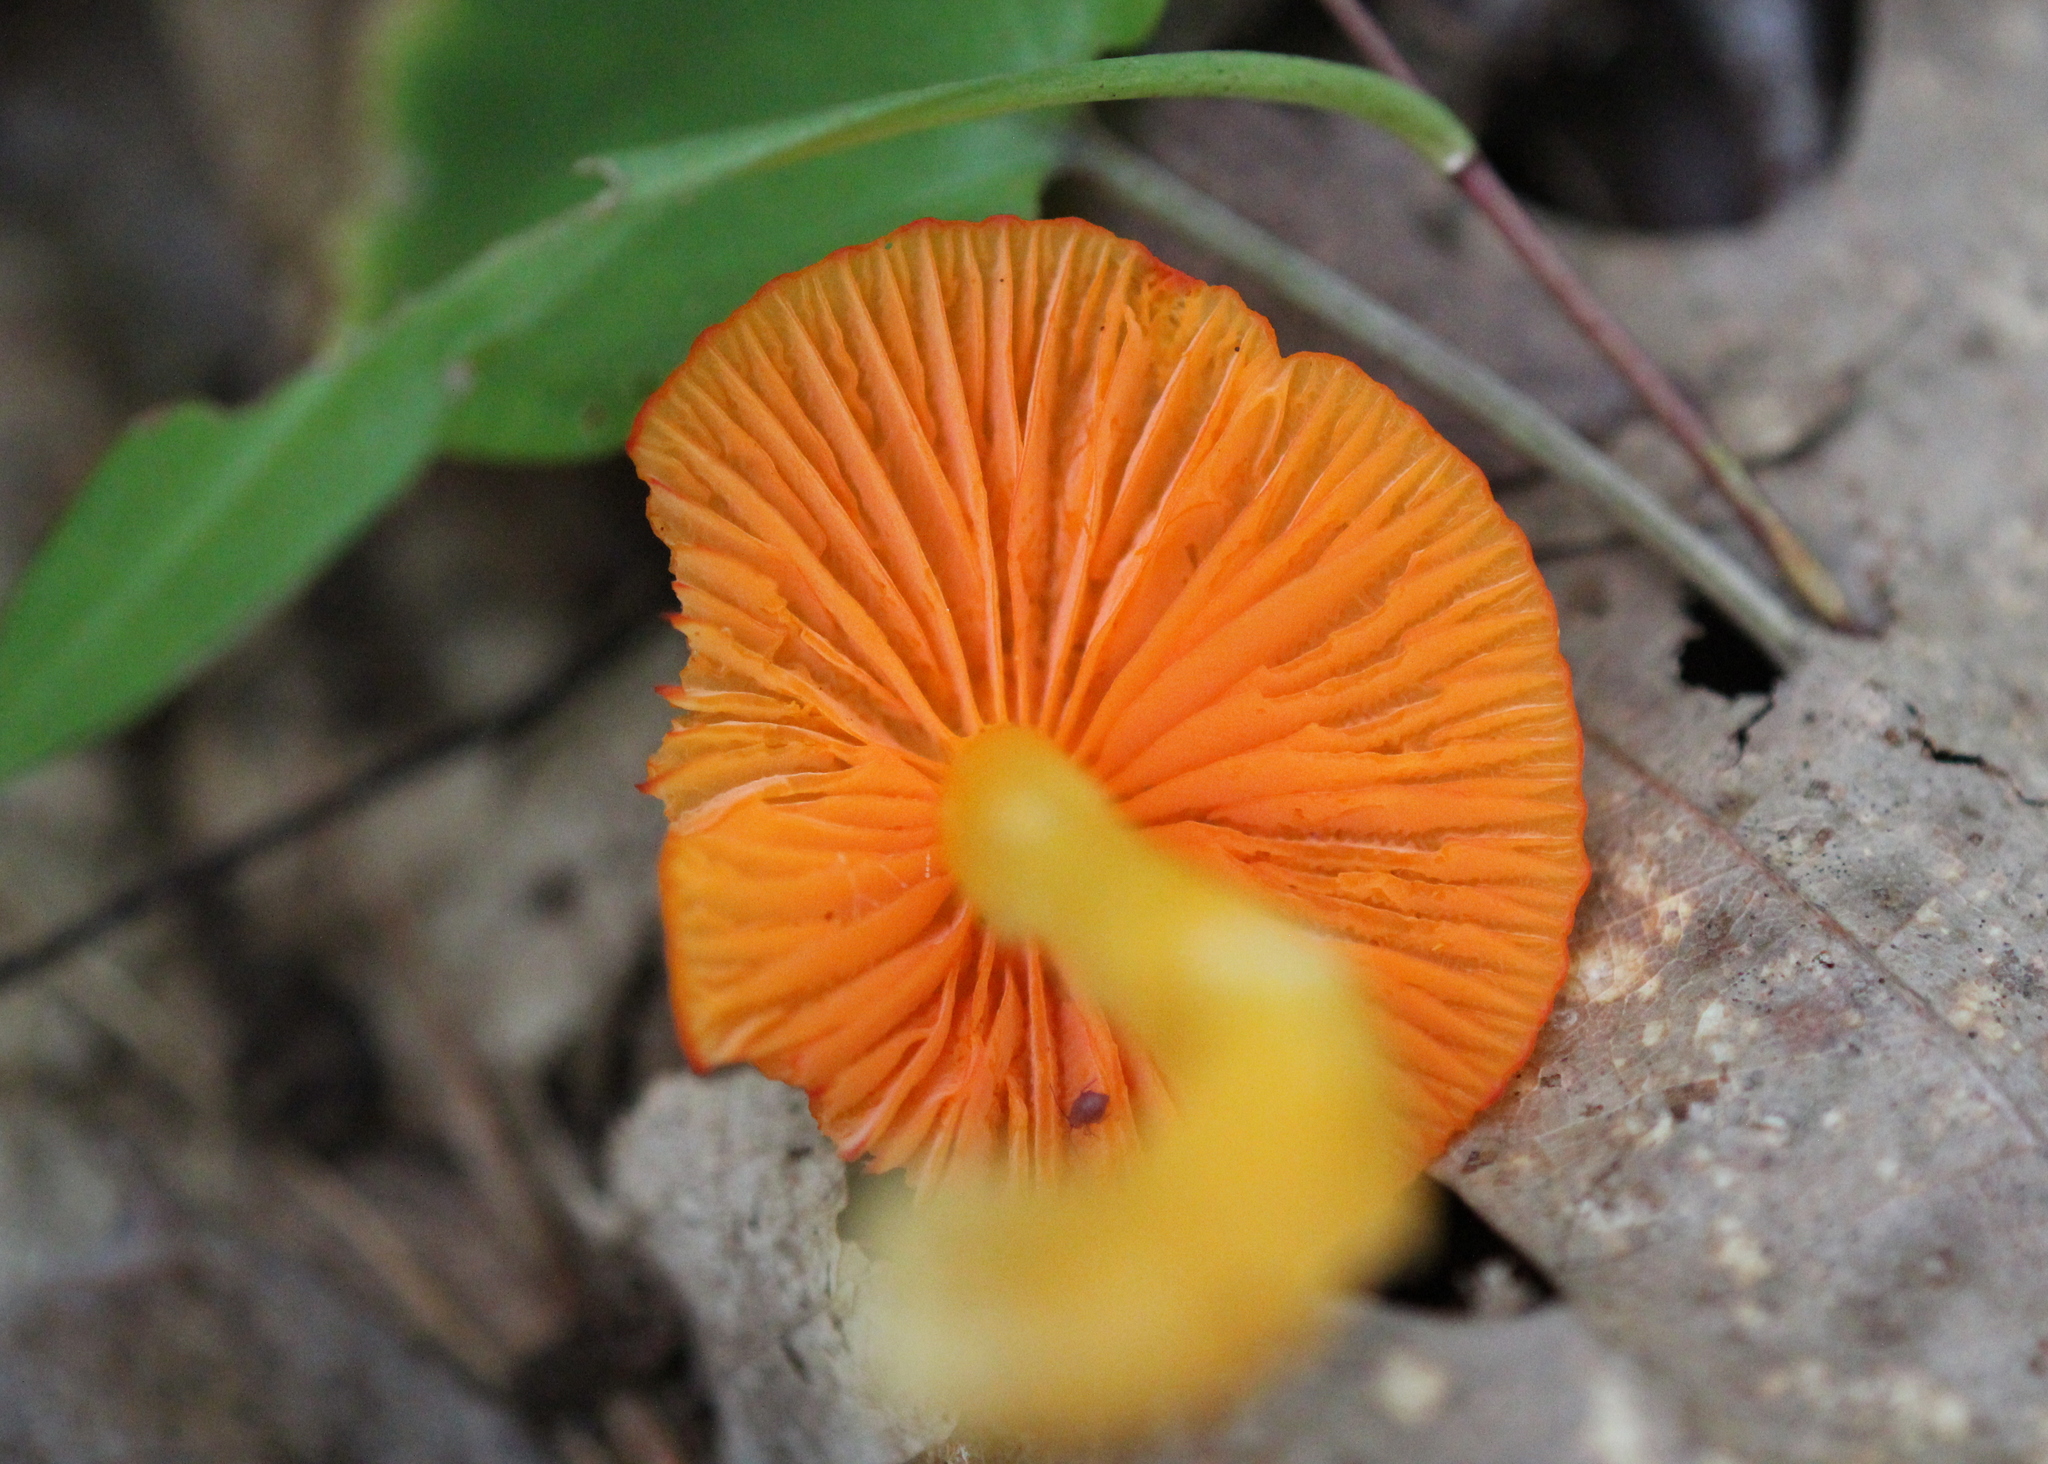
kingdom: Fungi
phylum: Basidiomycota
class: Agaricomycetes
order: Agaricales
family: Hygrophoraceae
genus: Humidicutis
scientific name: Humidicutis marginata
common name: Orange gilled waxcap
